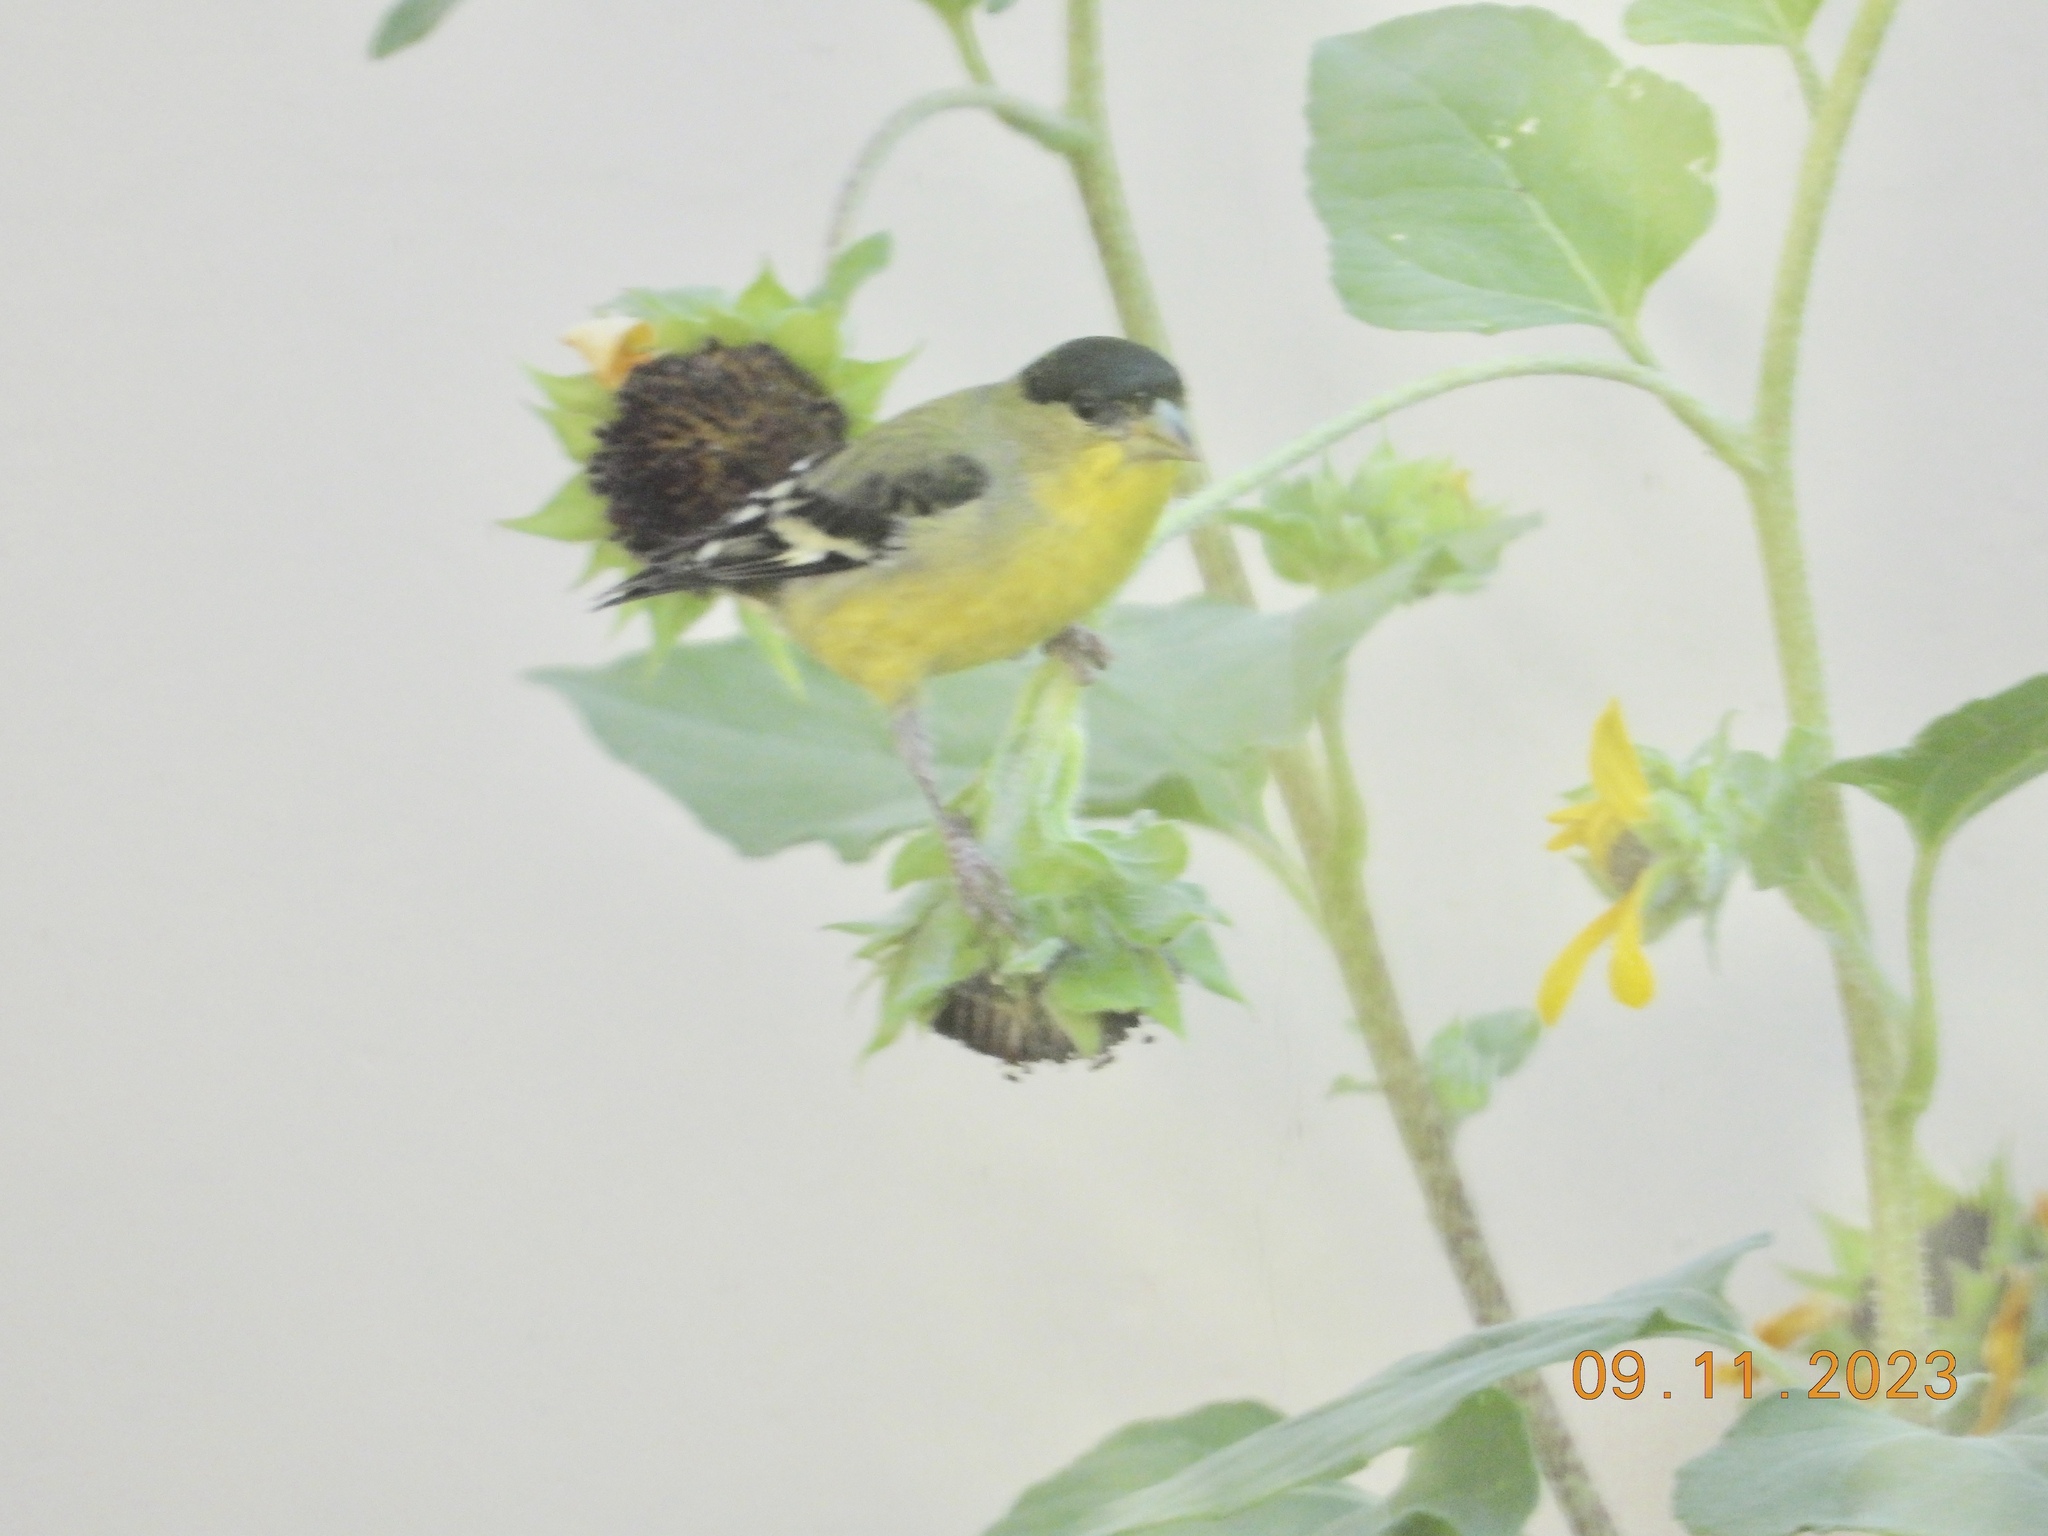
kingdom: Animalia
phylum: Chordata
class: Aves
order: Passeriformes
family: Fringillidae
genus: Spinus
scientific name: Spinus psaltria
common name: Lesser goldfinch
